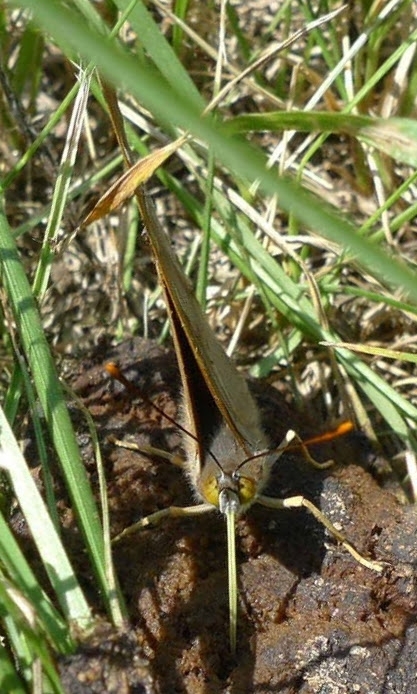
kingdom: Animalia
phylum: Arthropoda
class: Insecta
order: Lepidoptera
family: Nymphalidae
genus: Apatura
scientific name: Apatura ilia
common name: Lesser purple emperor
